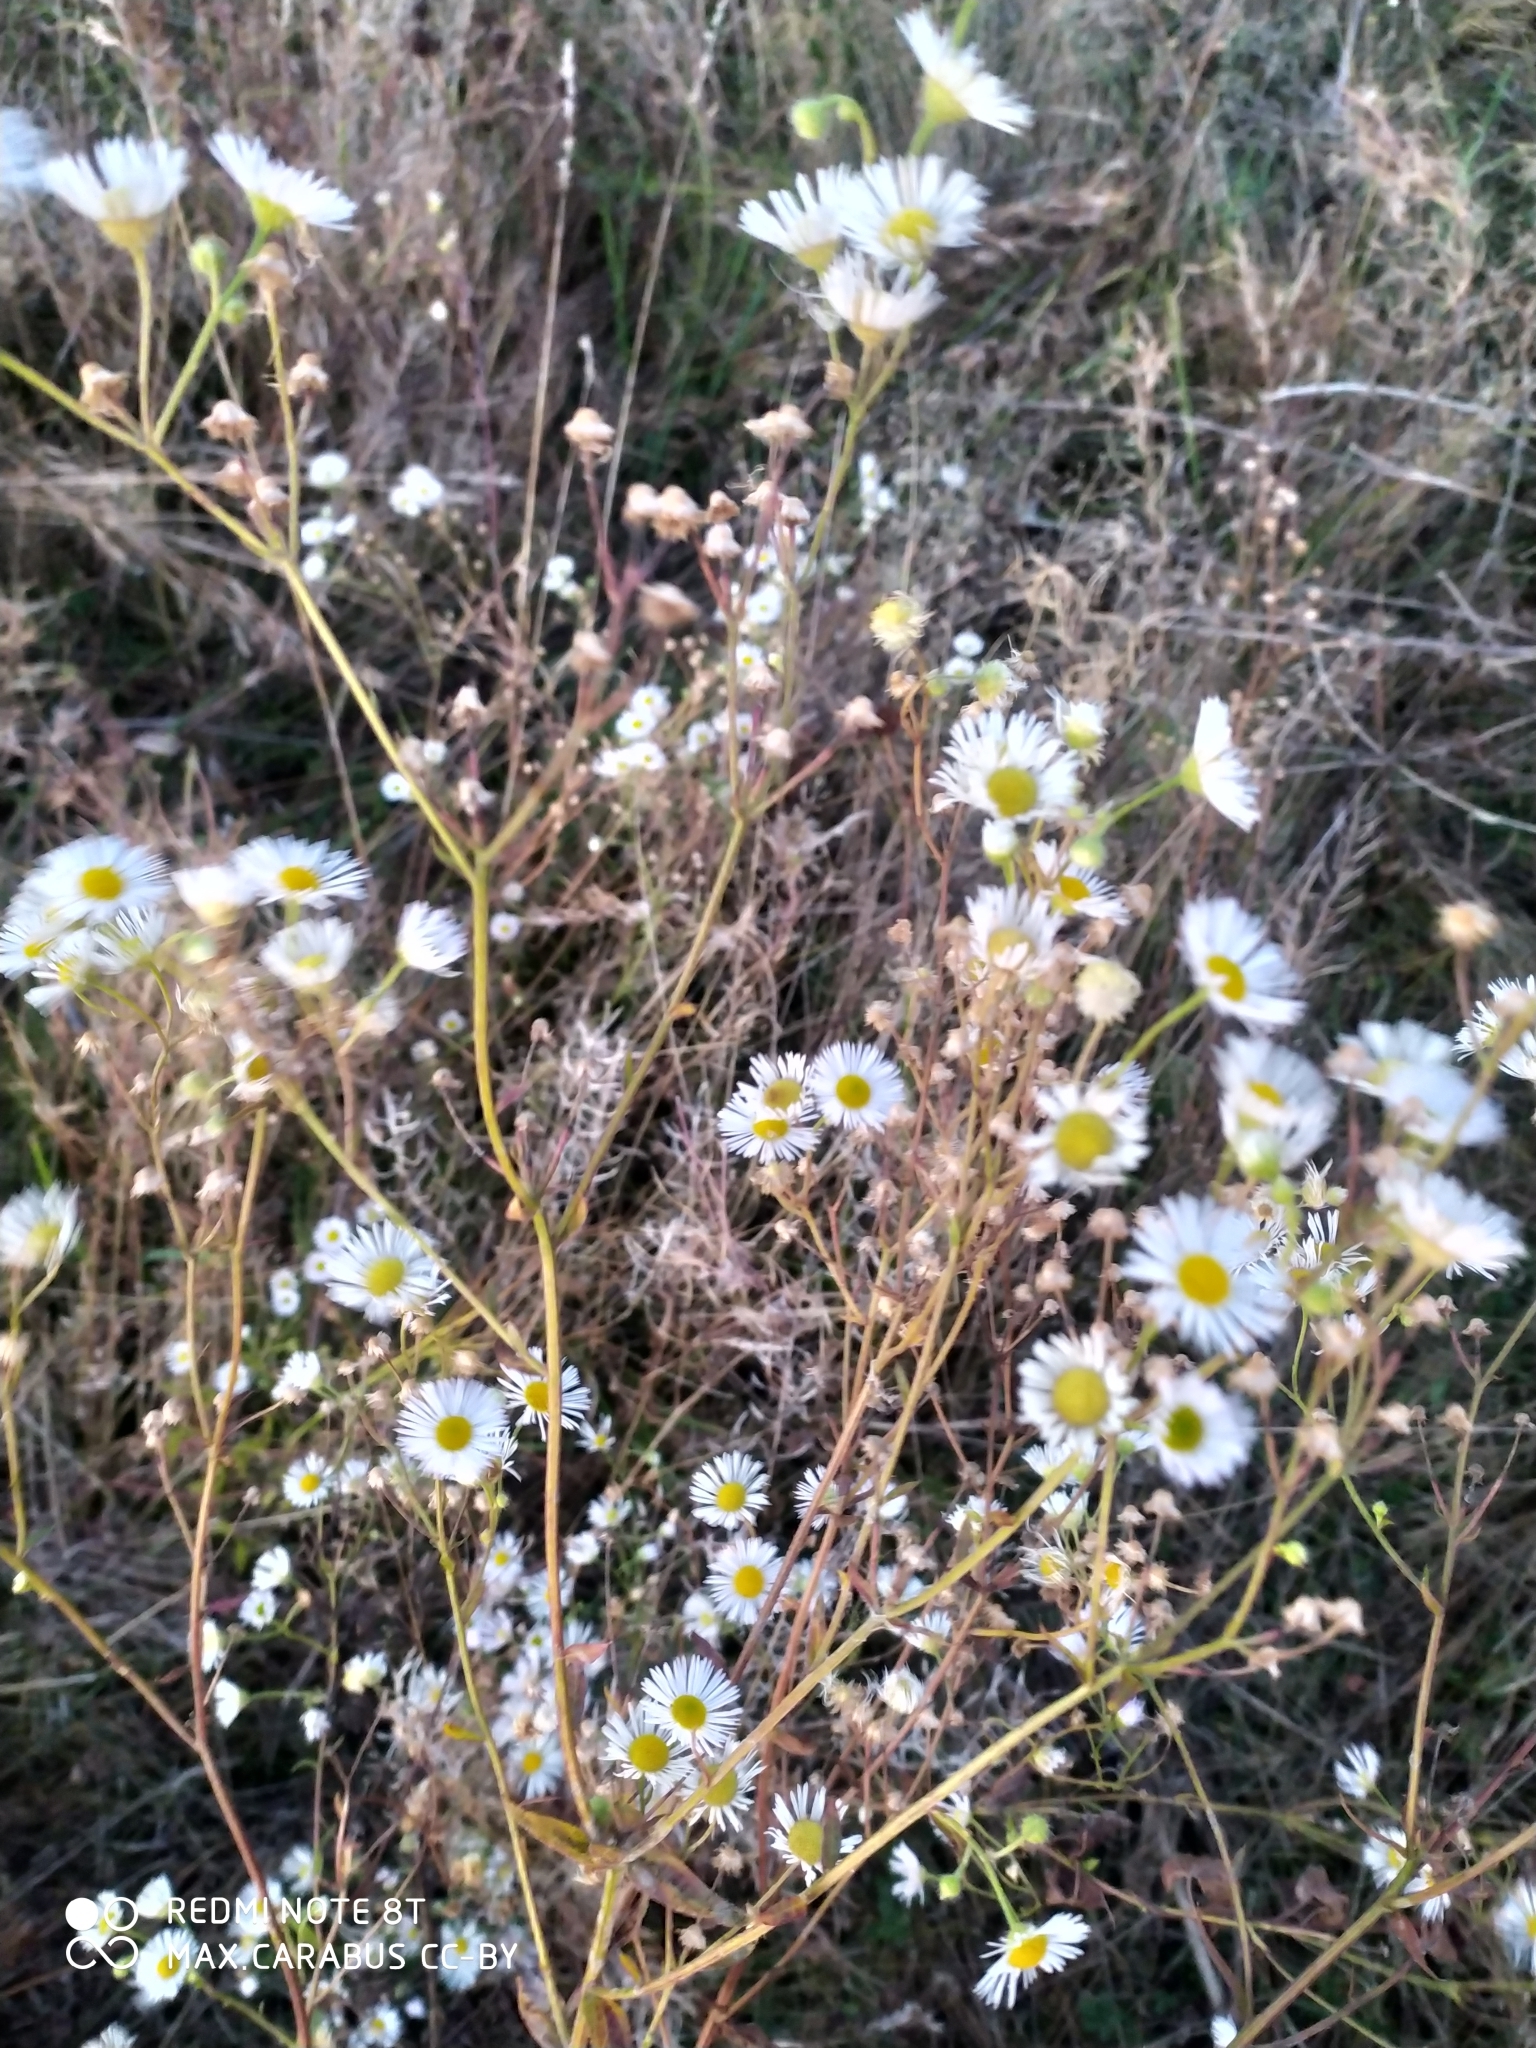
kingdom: Plantae
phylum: Tracheophyta
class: Magnoliopsida
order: Asterales
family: Asteraceae
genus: Erigeron
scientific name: Erigeron annuus
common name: Tall fleabane
